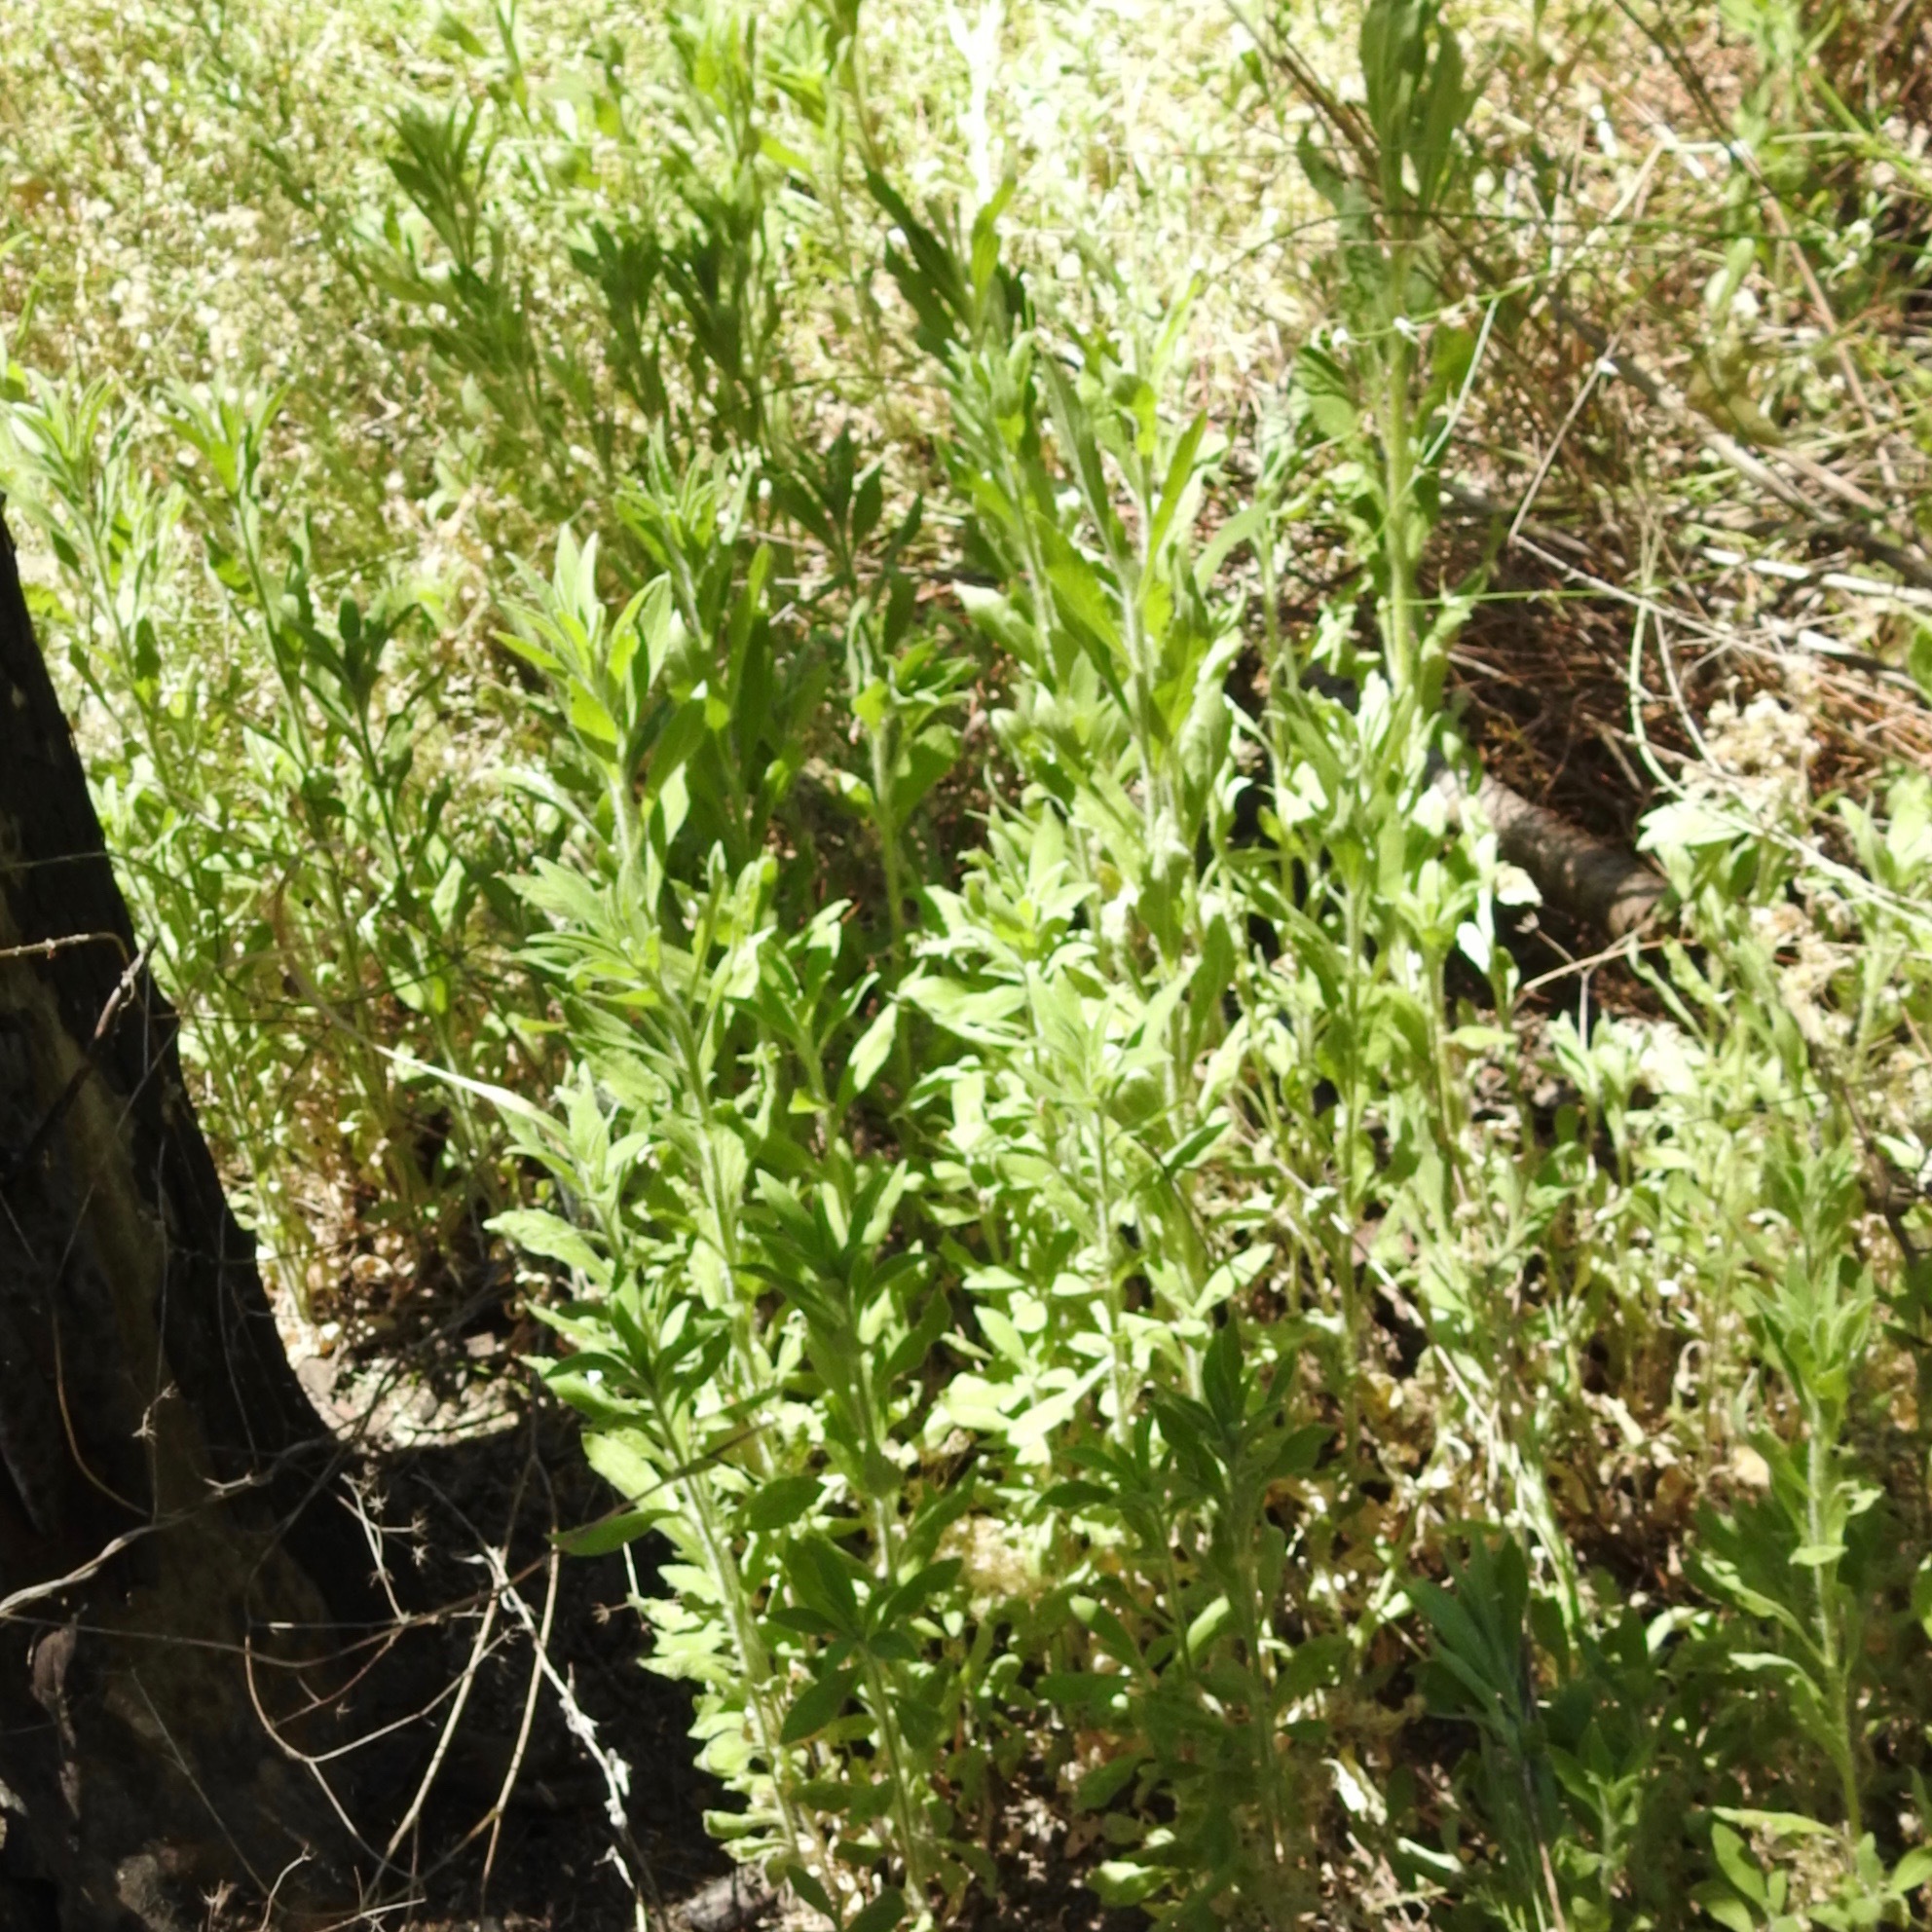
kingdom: Plantae
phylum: Tracheophyta
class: Magnoliopsida
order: Asterales
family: Asteraceae
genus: Artemisia
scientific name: Artemisia douglasiana
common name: Northwest mugwort
